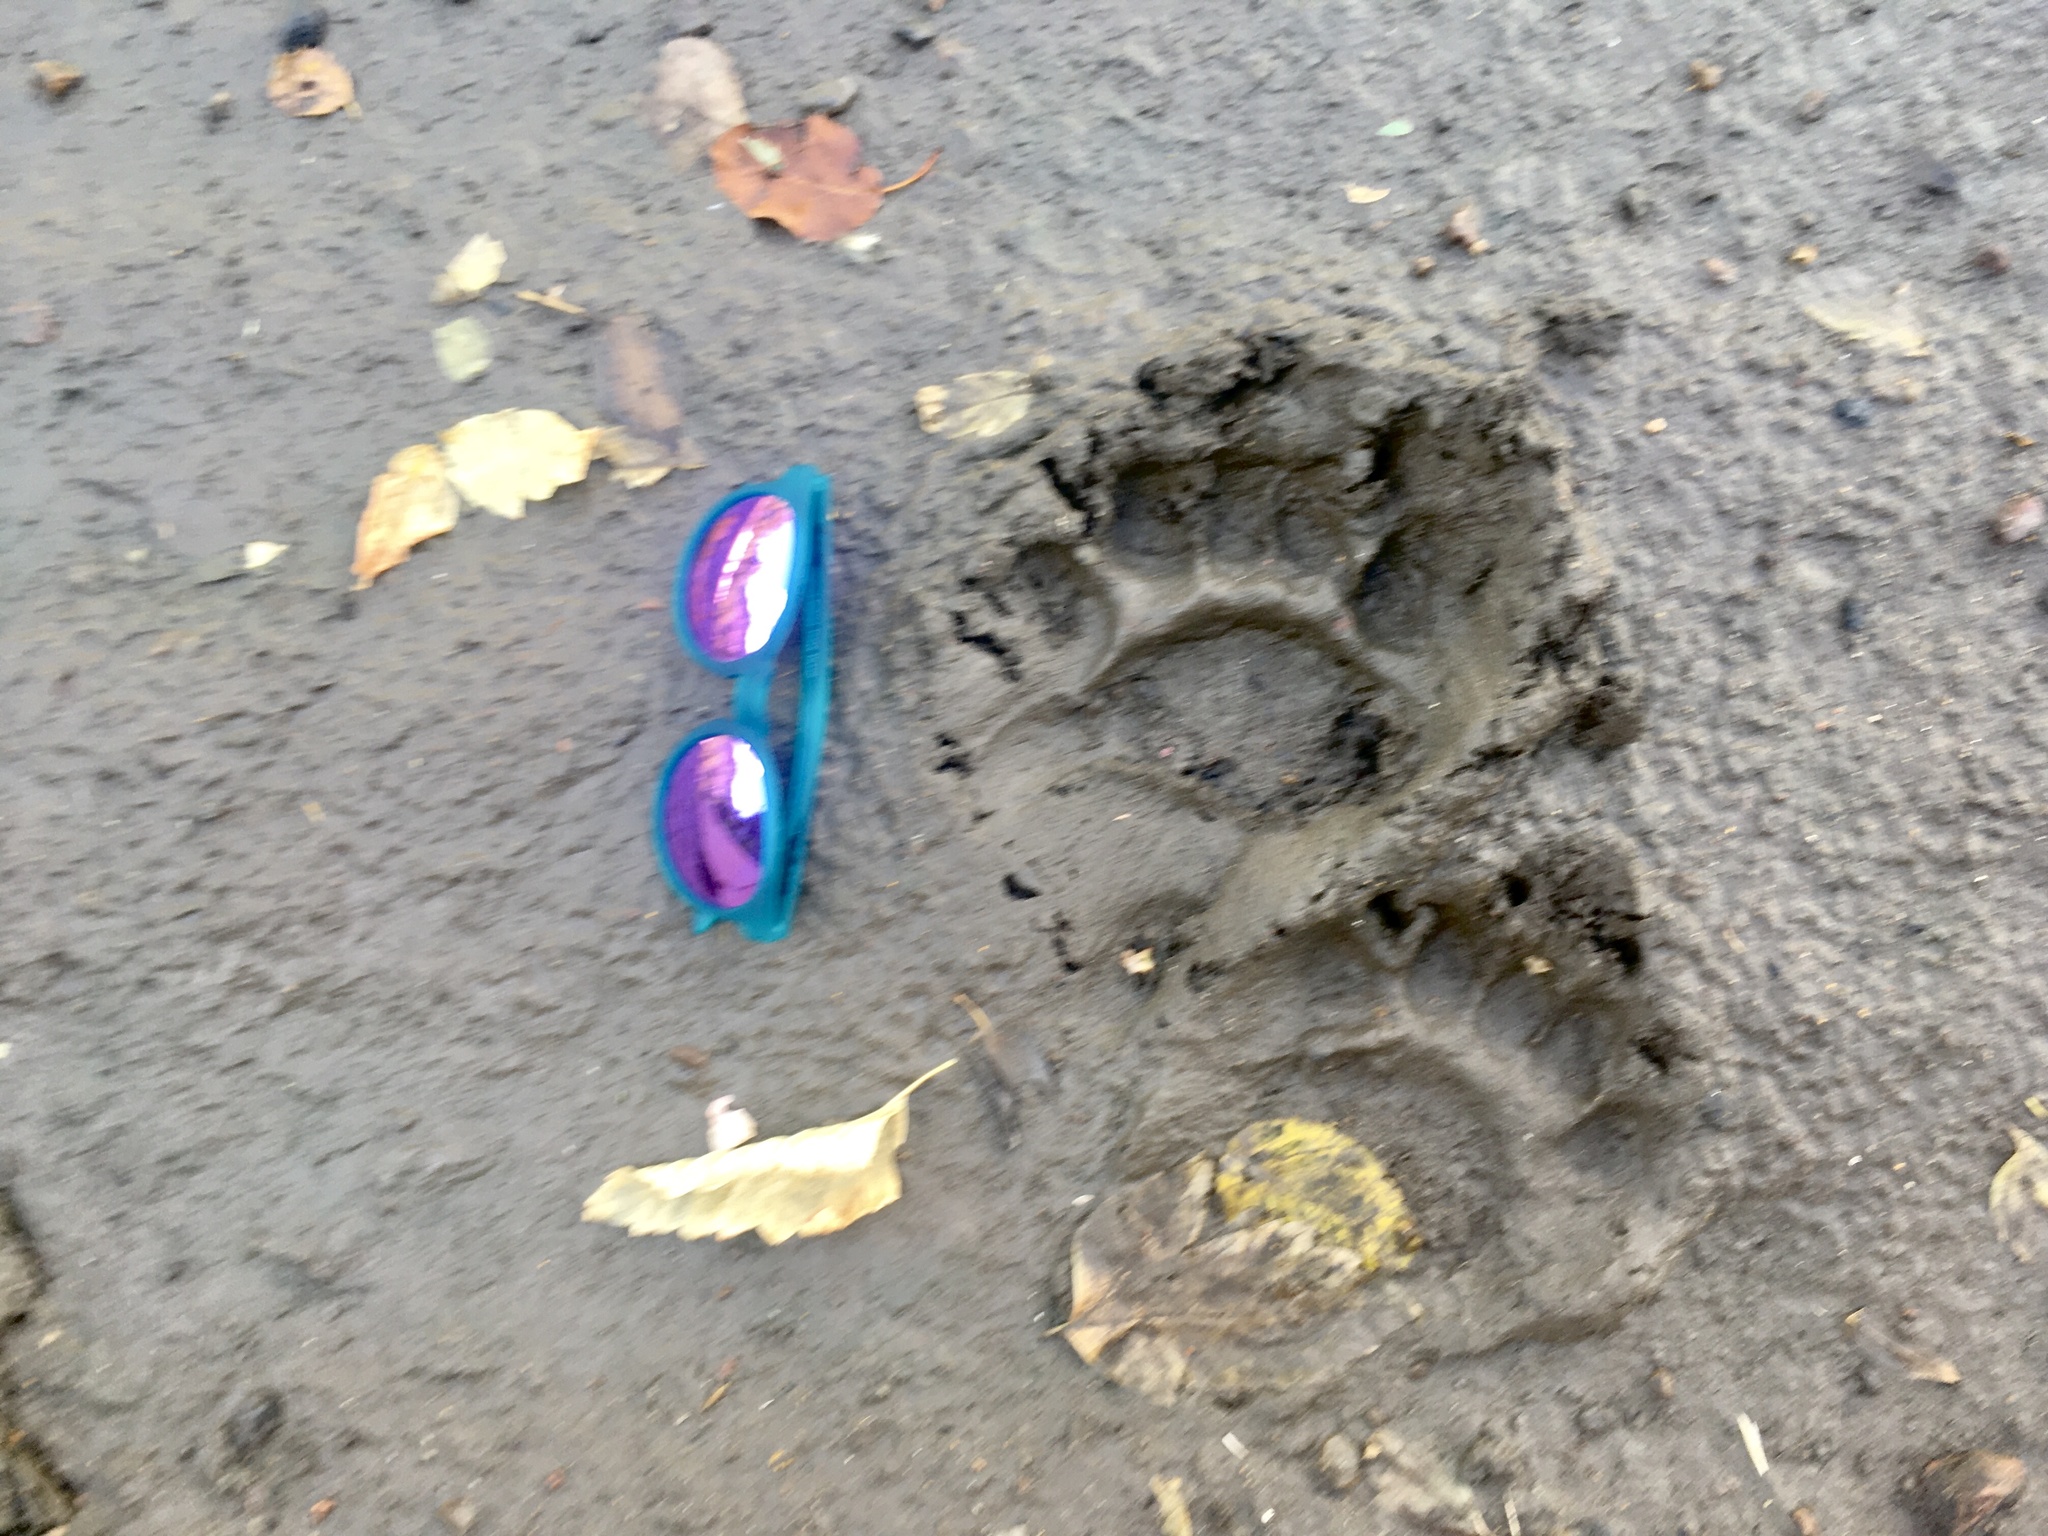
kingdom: Animalia
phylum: Chordata
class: Mammalia
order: Carnivora
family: Ursidae
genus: Ursus
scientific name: Ursus americanus
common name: American black bear
